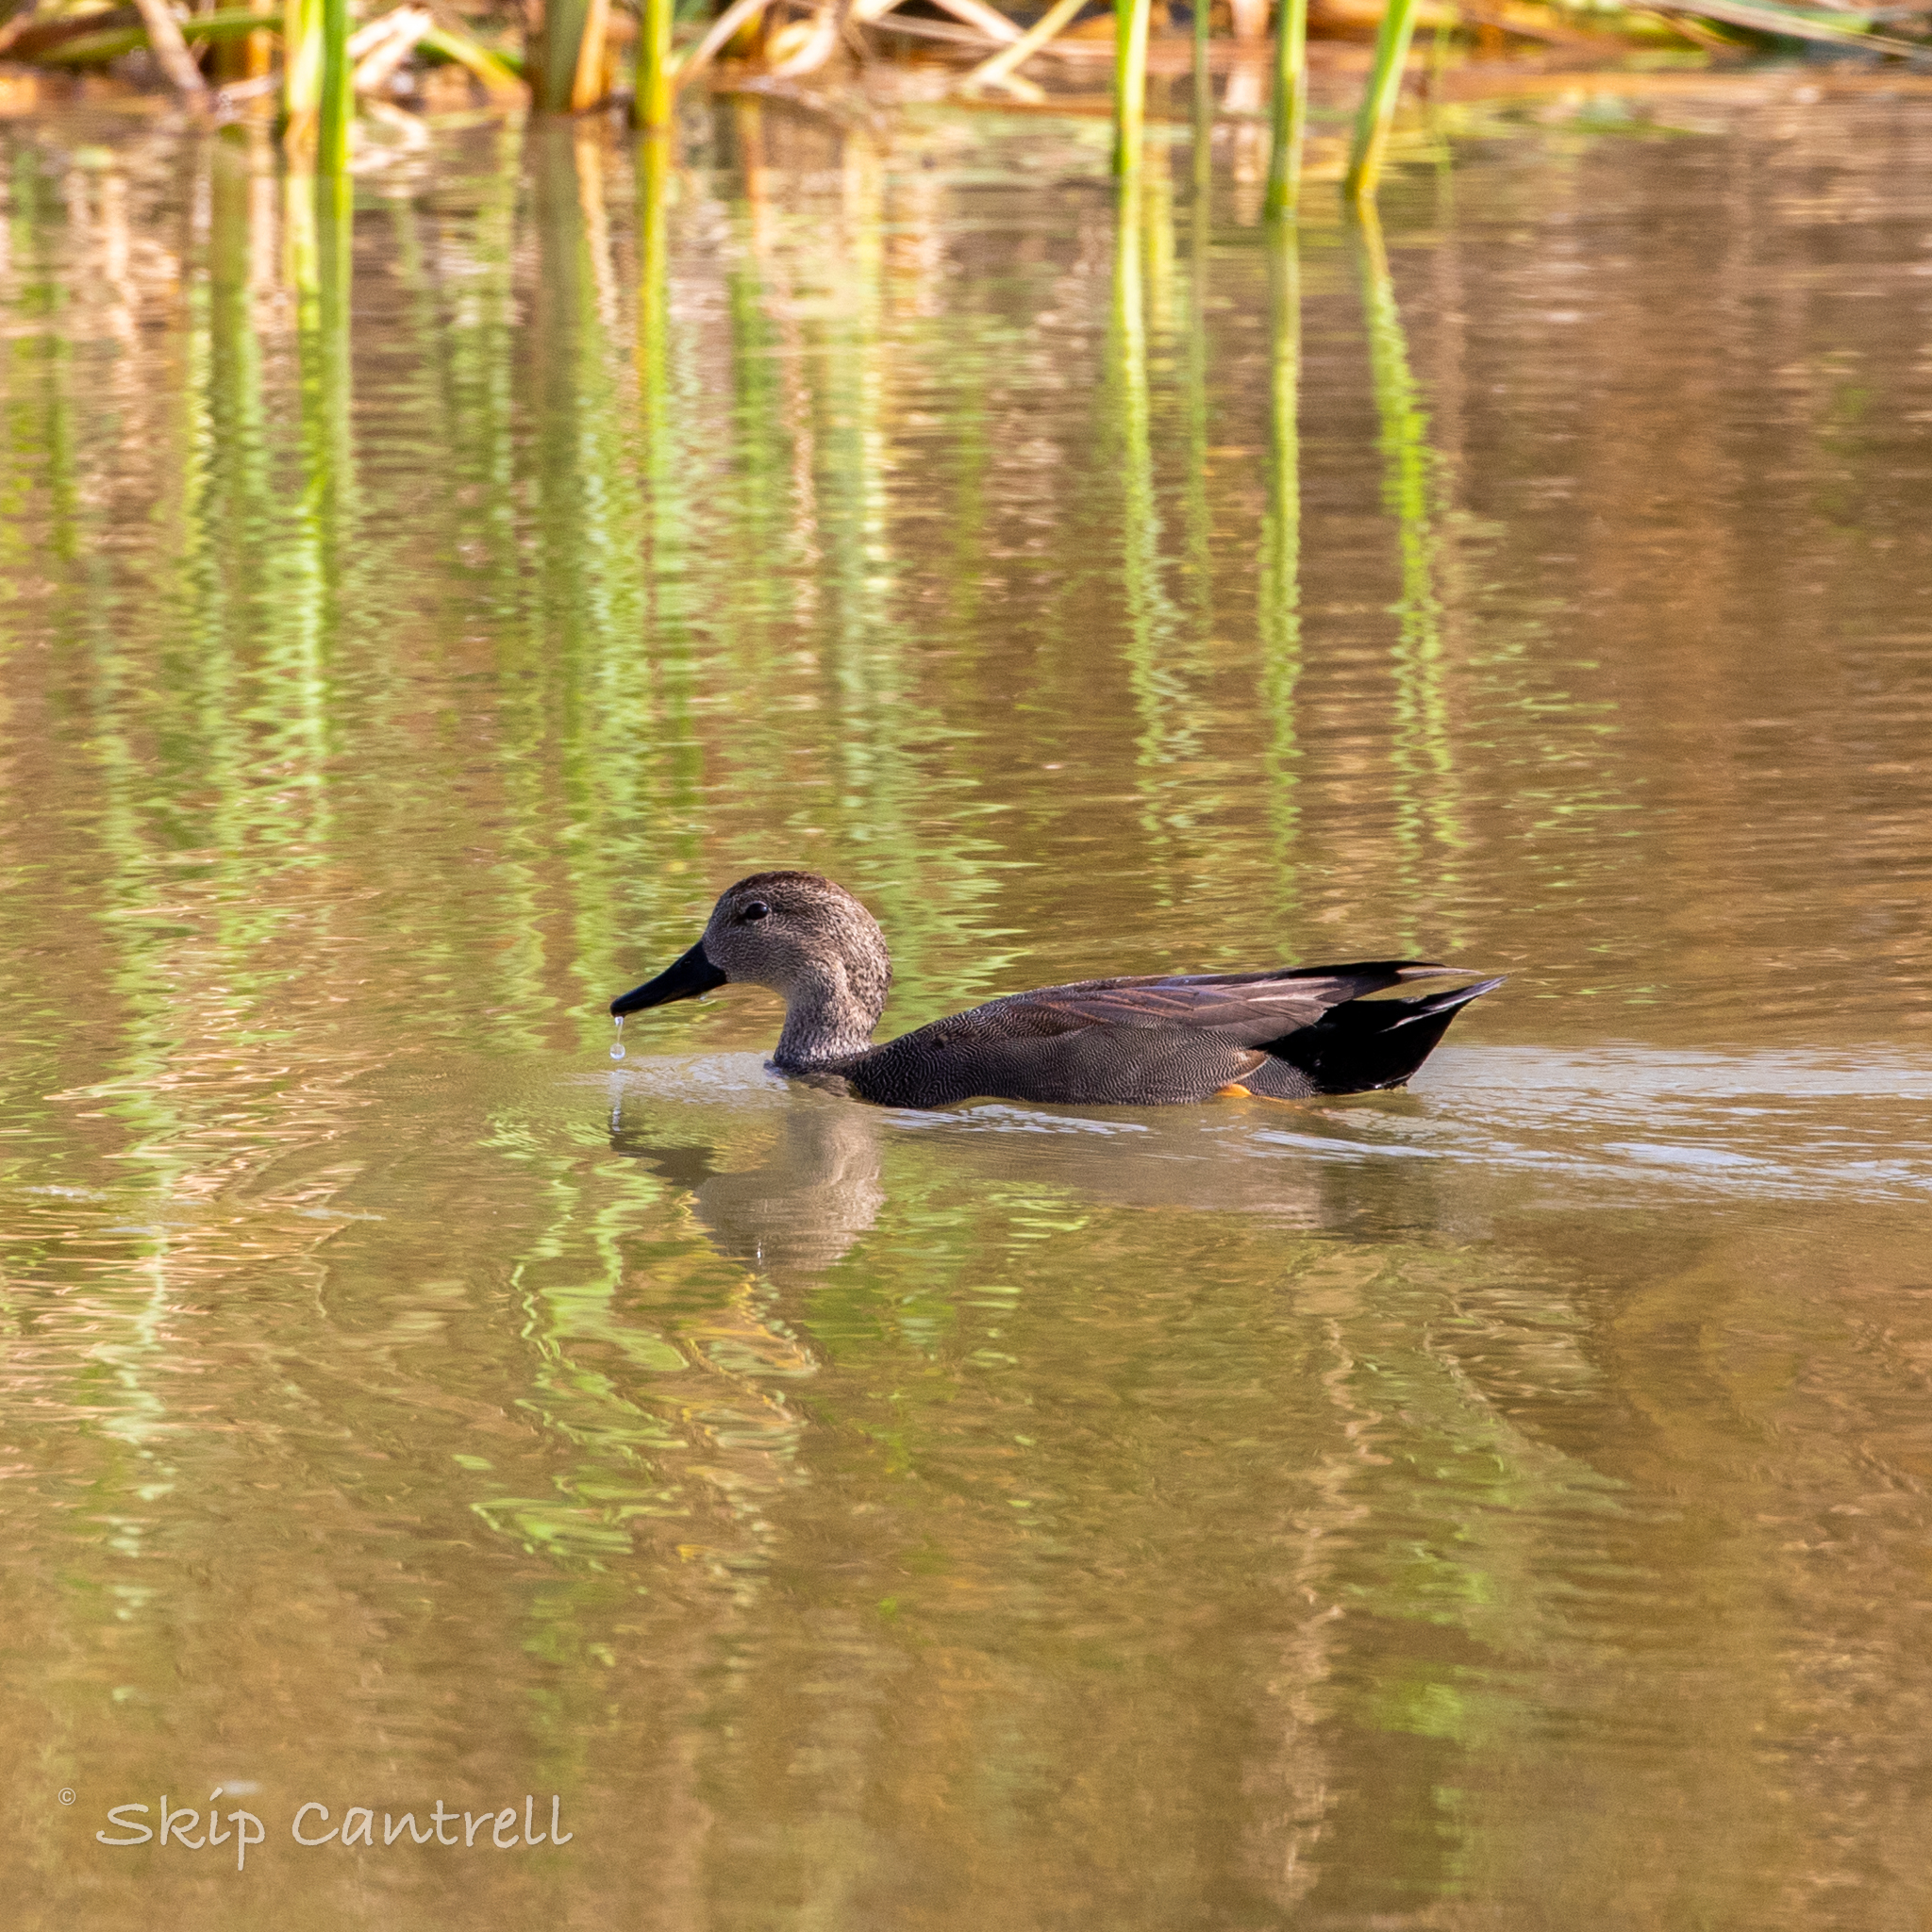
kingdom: Animalia
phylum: Chordata
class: Aves
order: Anseriformes
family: Anatidae
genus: Mareca
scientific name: Mareca strepera
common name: Gadwall
